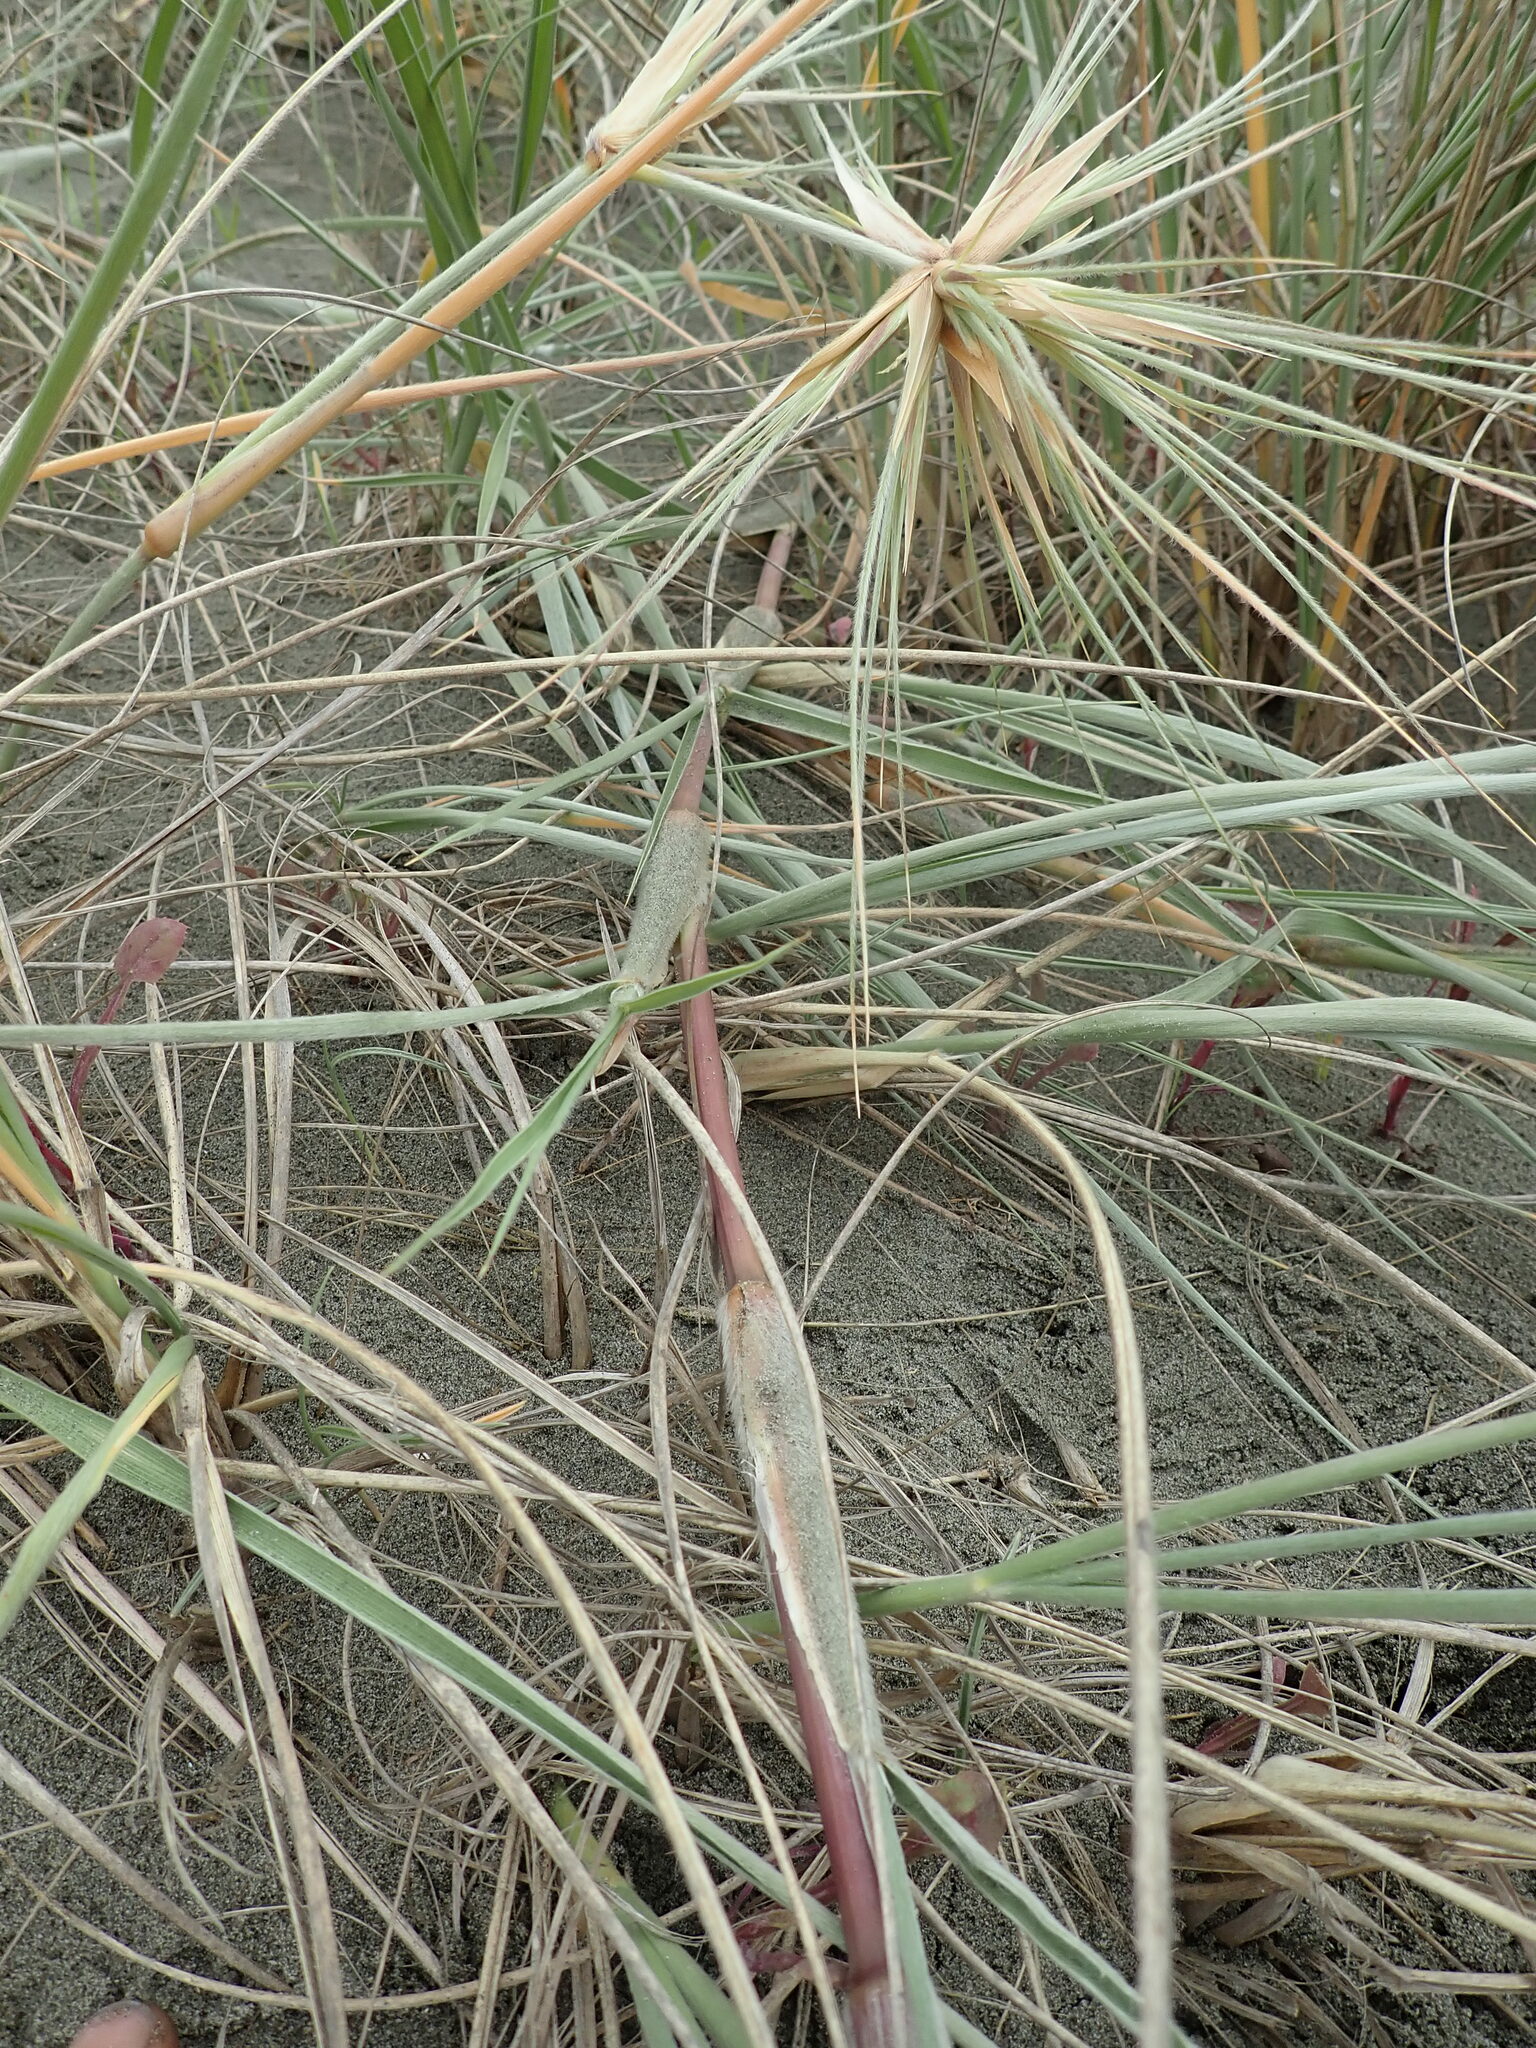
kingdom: Plantae
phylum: Tracheophyta
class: Liliopsida
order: Poales
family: Poaceae
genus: Spinifex
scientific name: Spinifex sericeus
